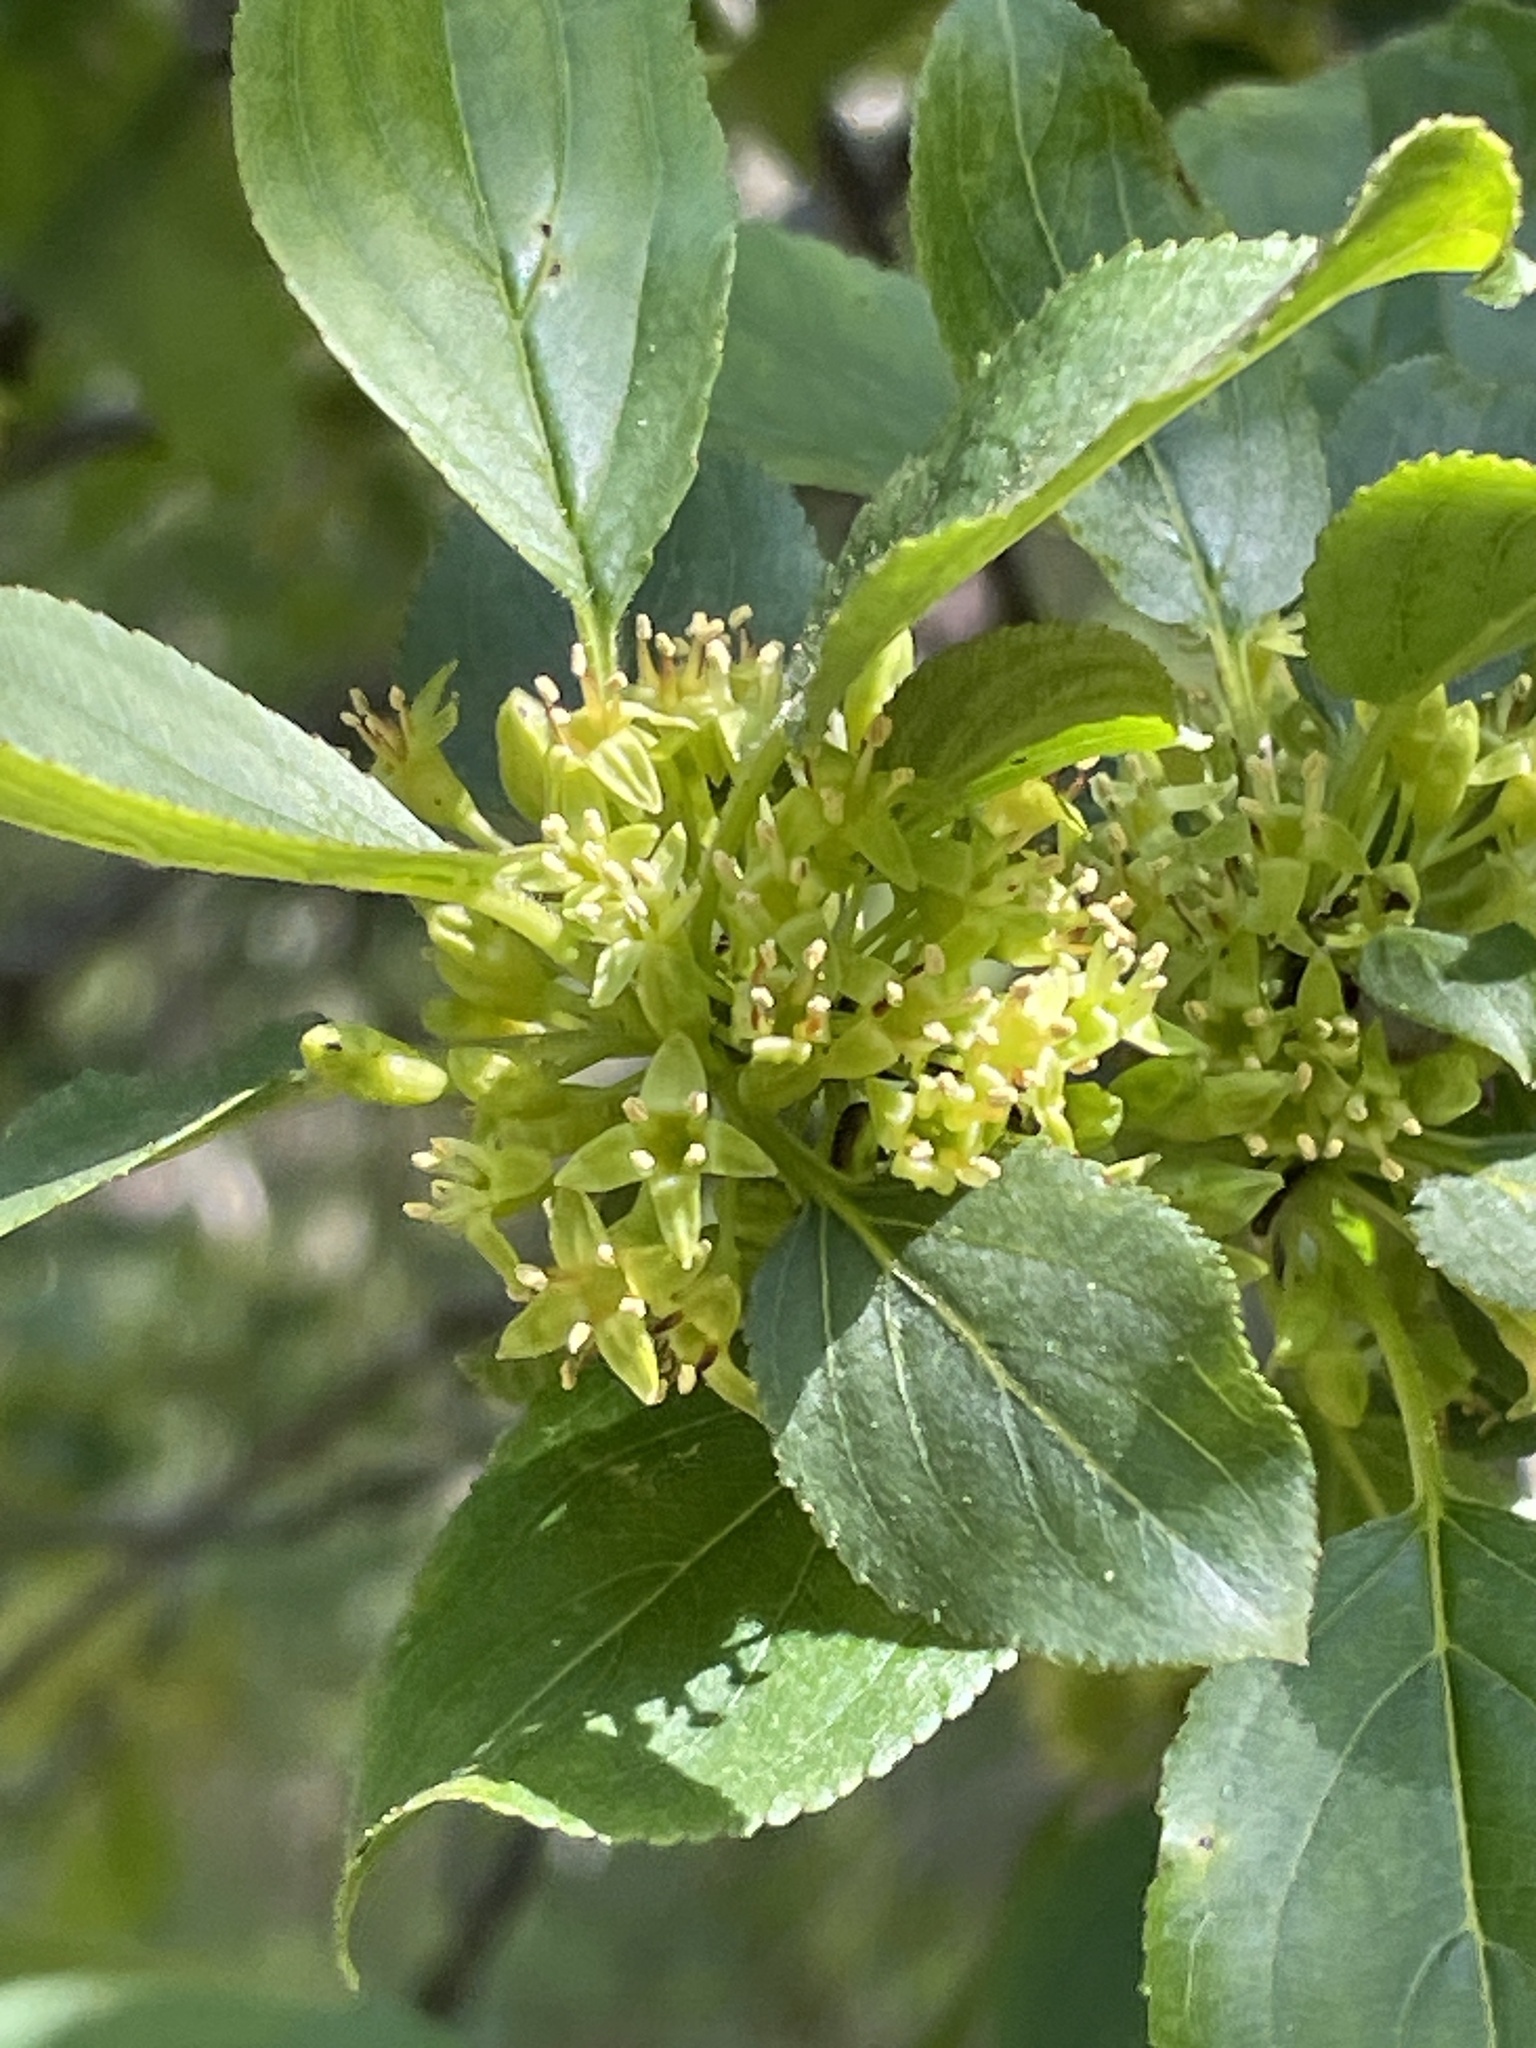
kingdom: Plantae
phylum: Tracheophyta
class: Magnoliopsida
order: Rosales
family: Rhamnaceae
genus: Rhamnus
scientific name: Rhamnus cathartica
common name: Common buckthorn
